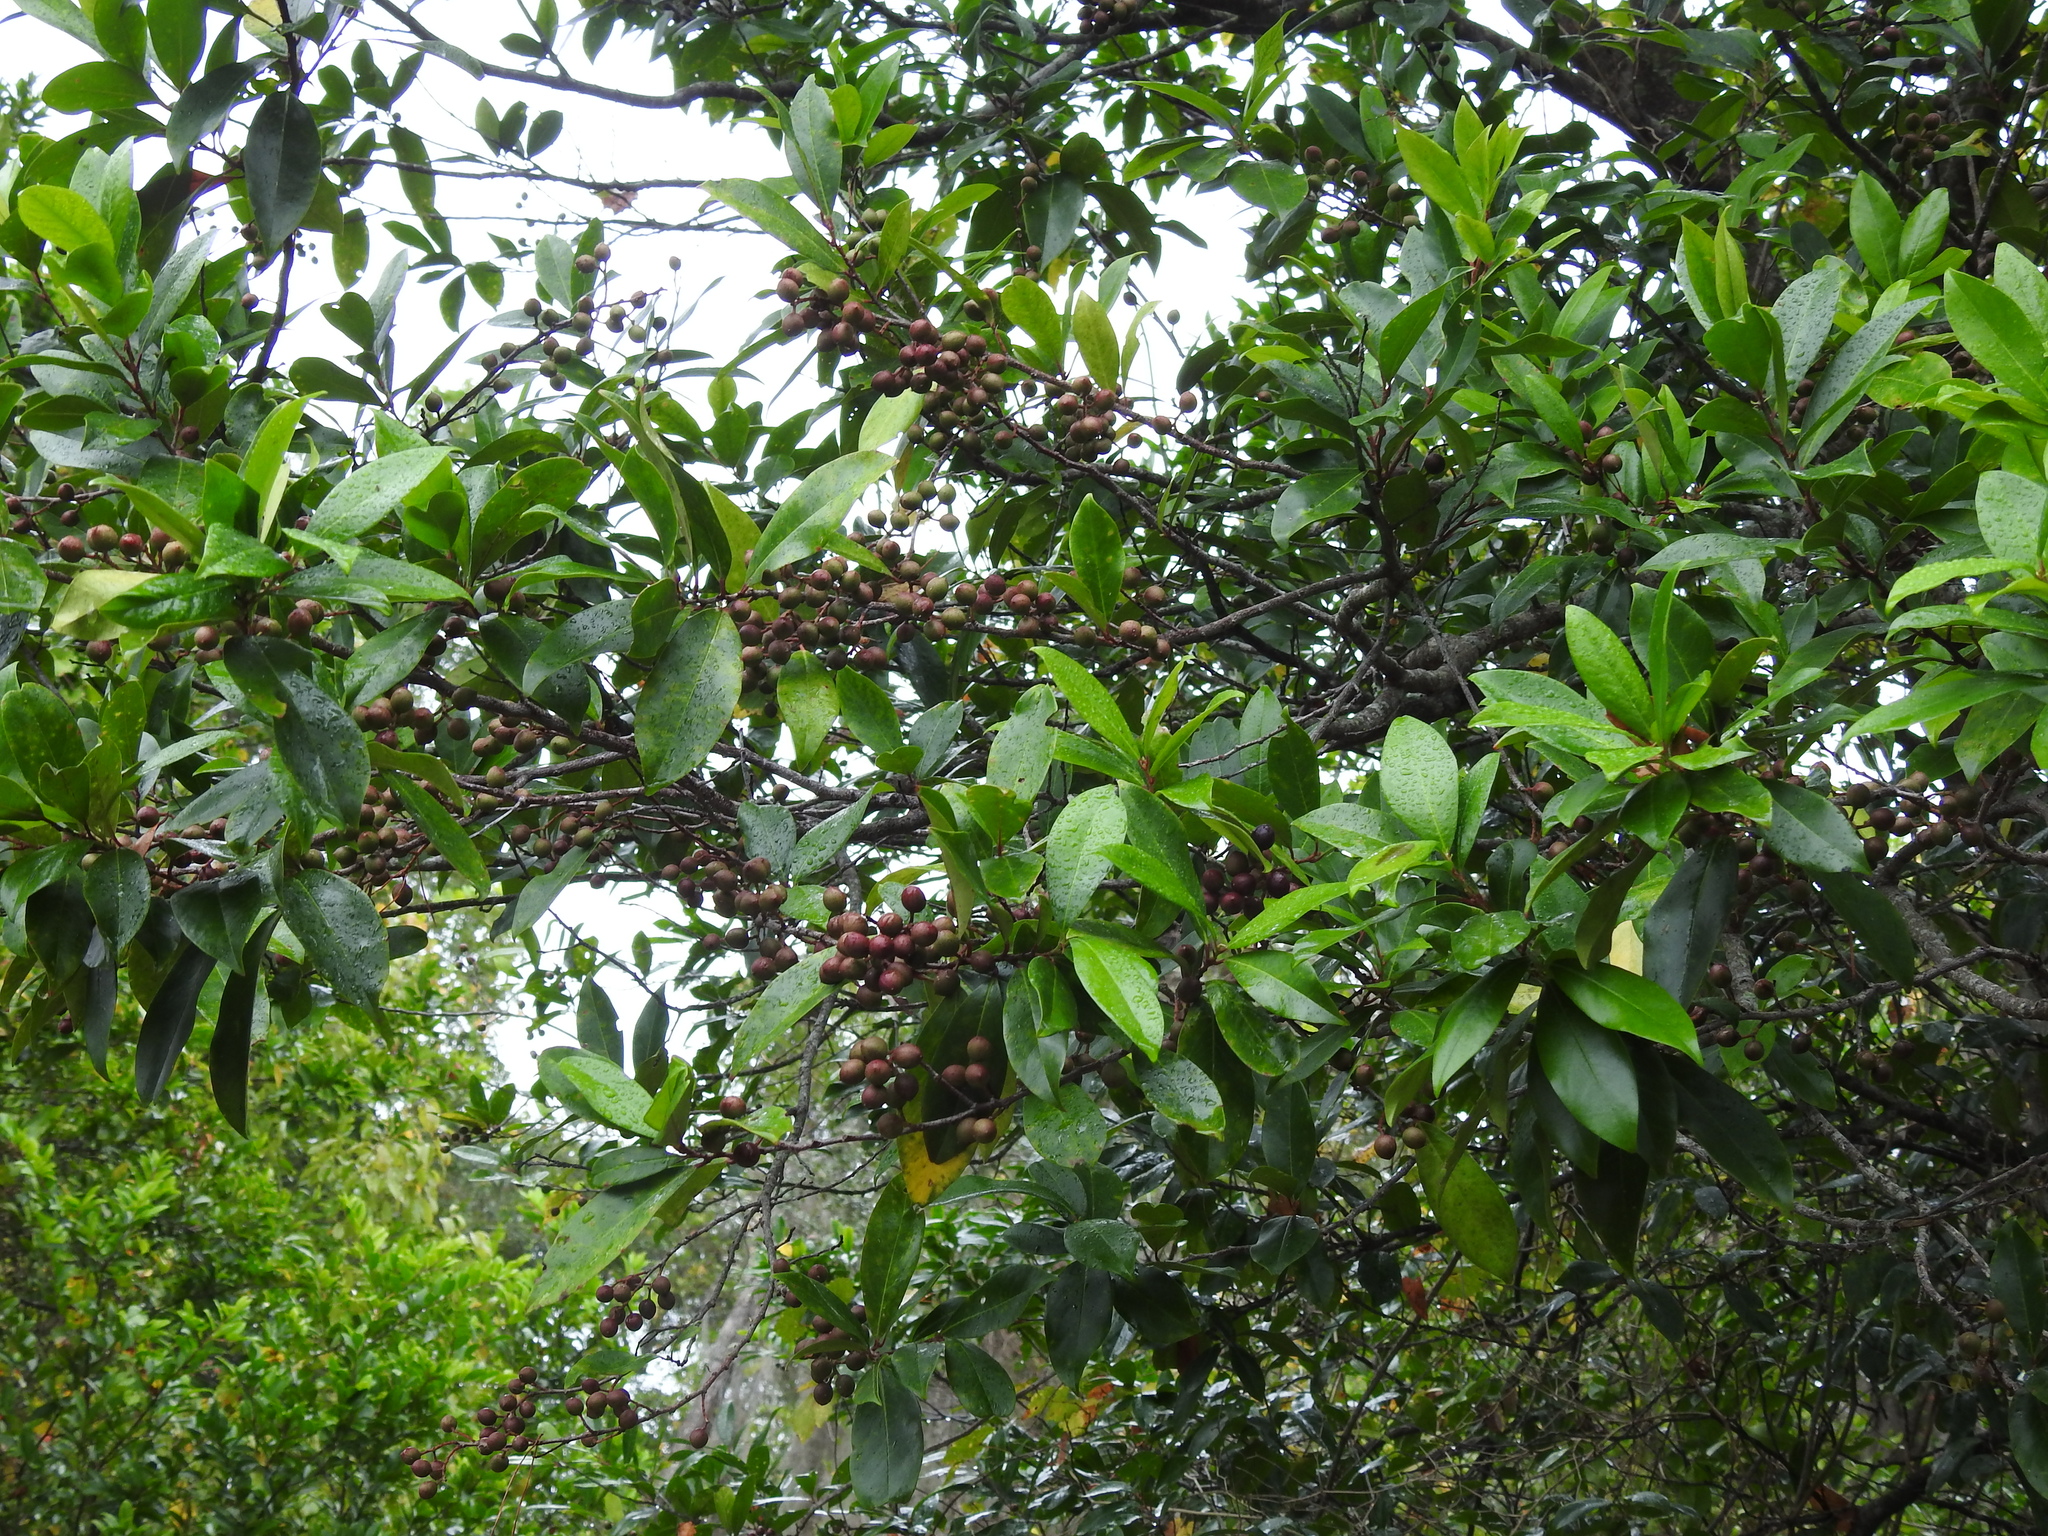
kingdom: Plantae
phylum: Tracheophyta
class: Magnoliopsida
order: Rosales
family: Rosaceae
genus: Prunus
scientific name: Prunus caroliniana
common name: Carolina laurel cherry
